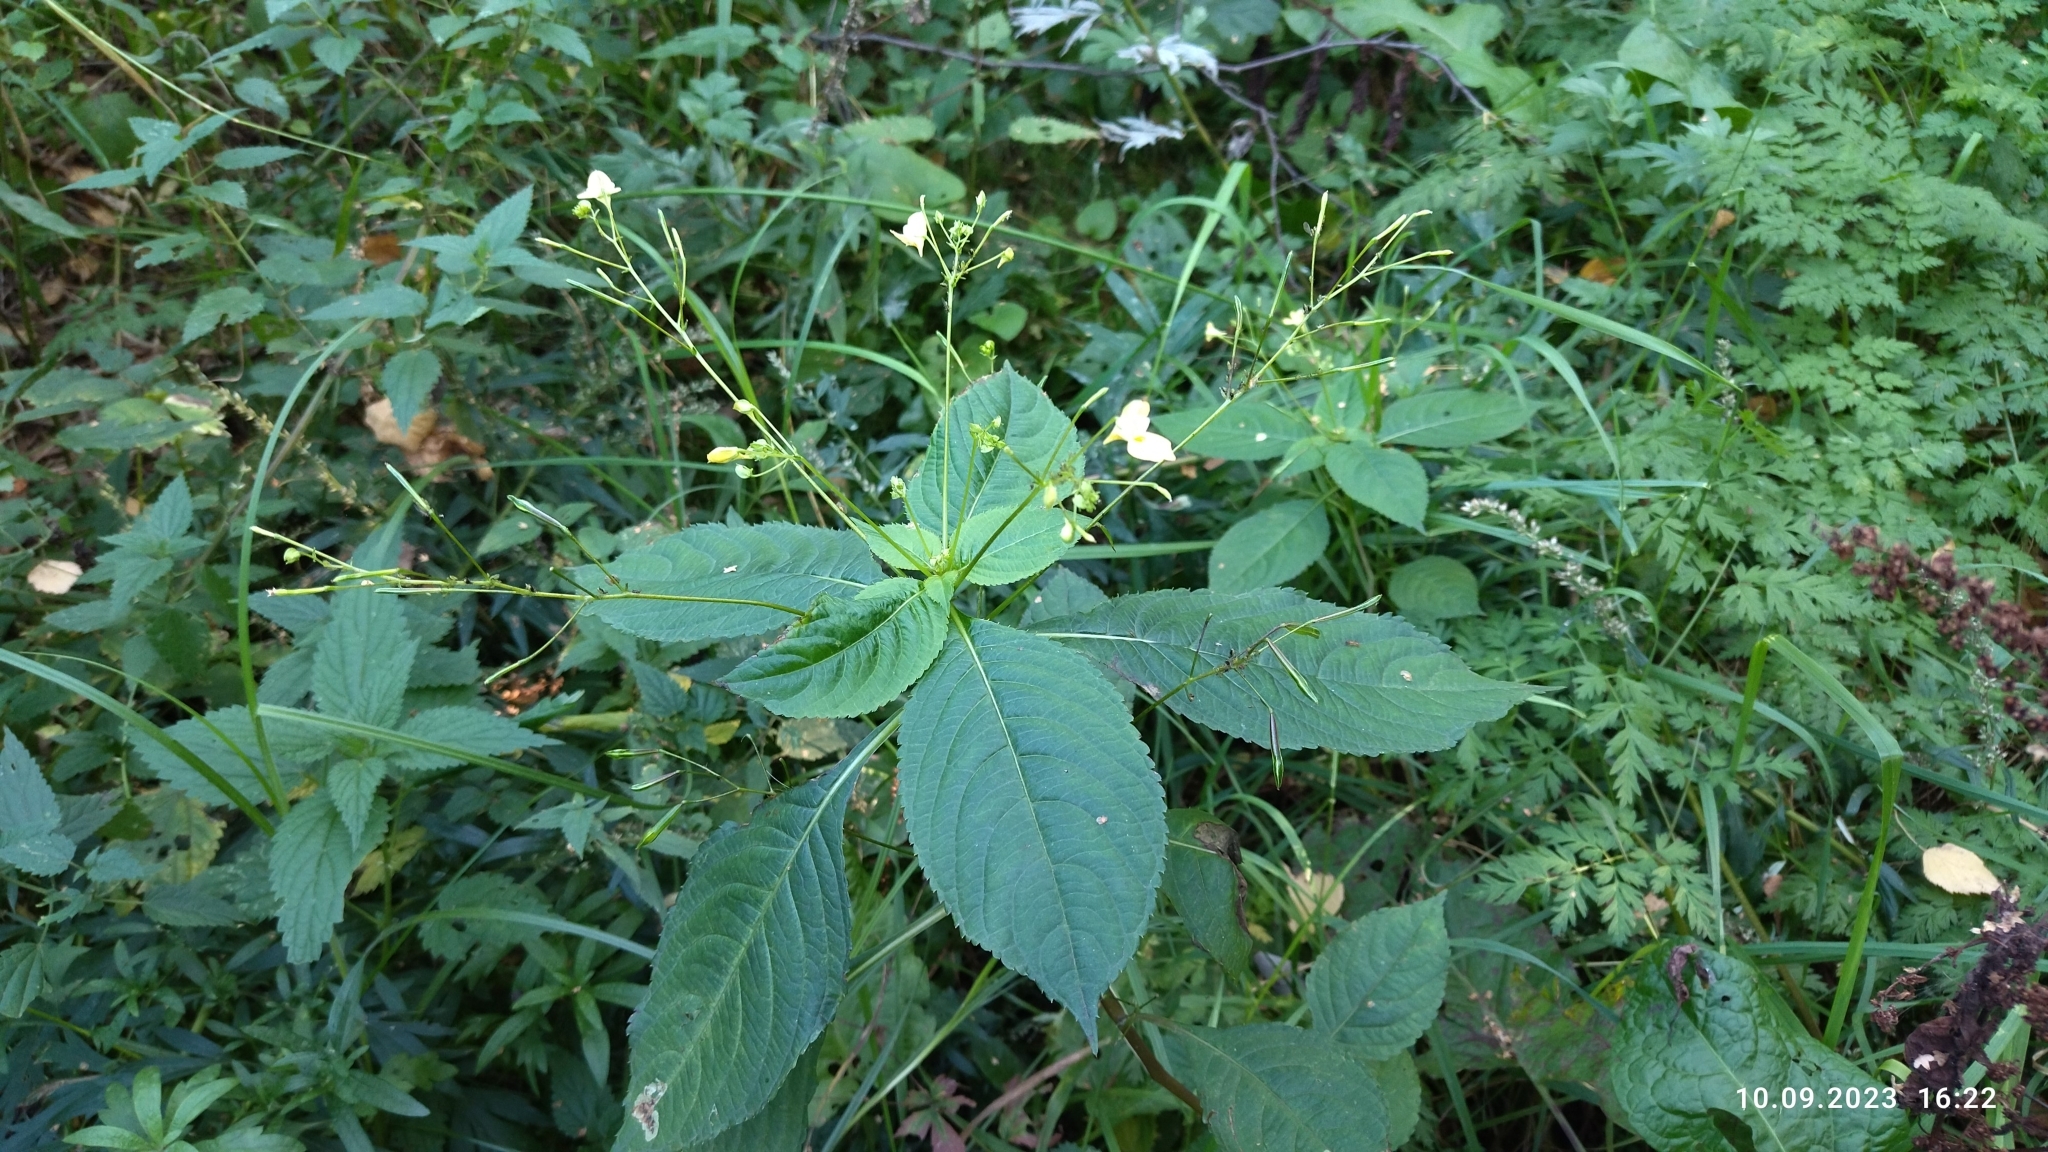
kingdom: Plantae
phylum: Tracheophyta
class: Magnoliopsida
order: Ericales
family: Balsaminaceae
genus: Impatiens
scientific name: Impatiens parviflora
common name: Small balsam
